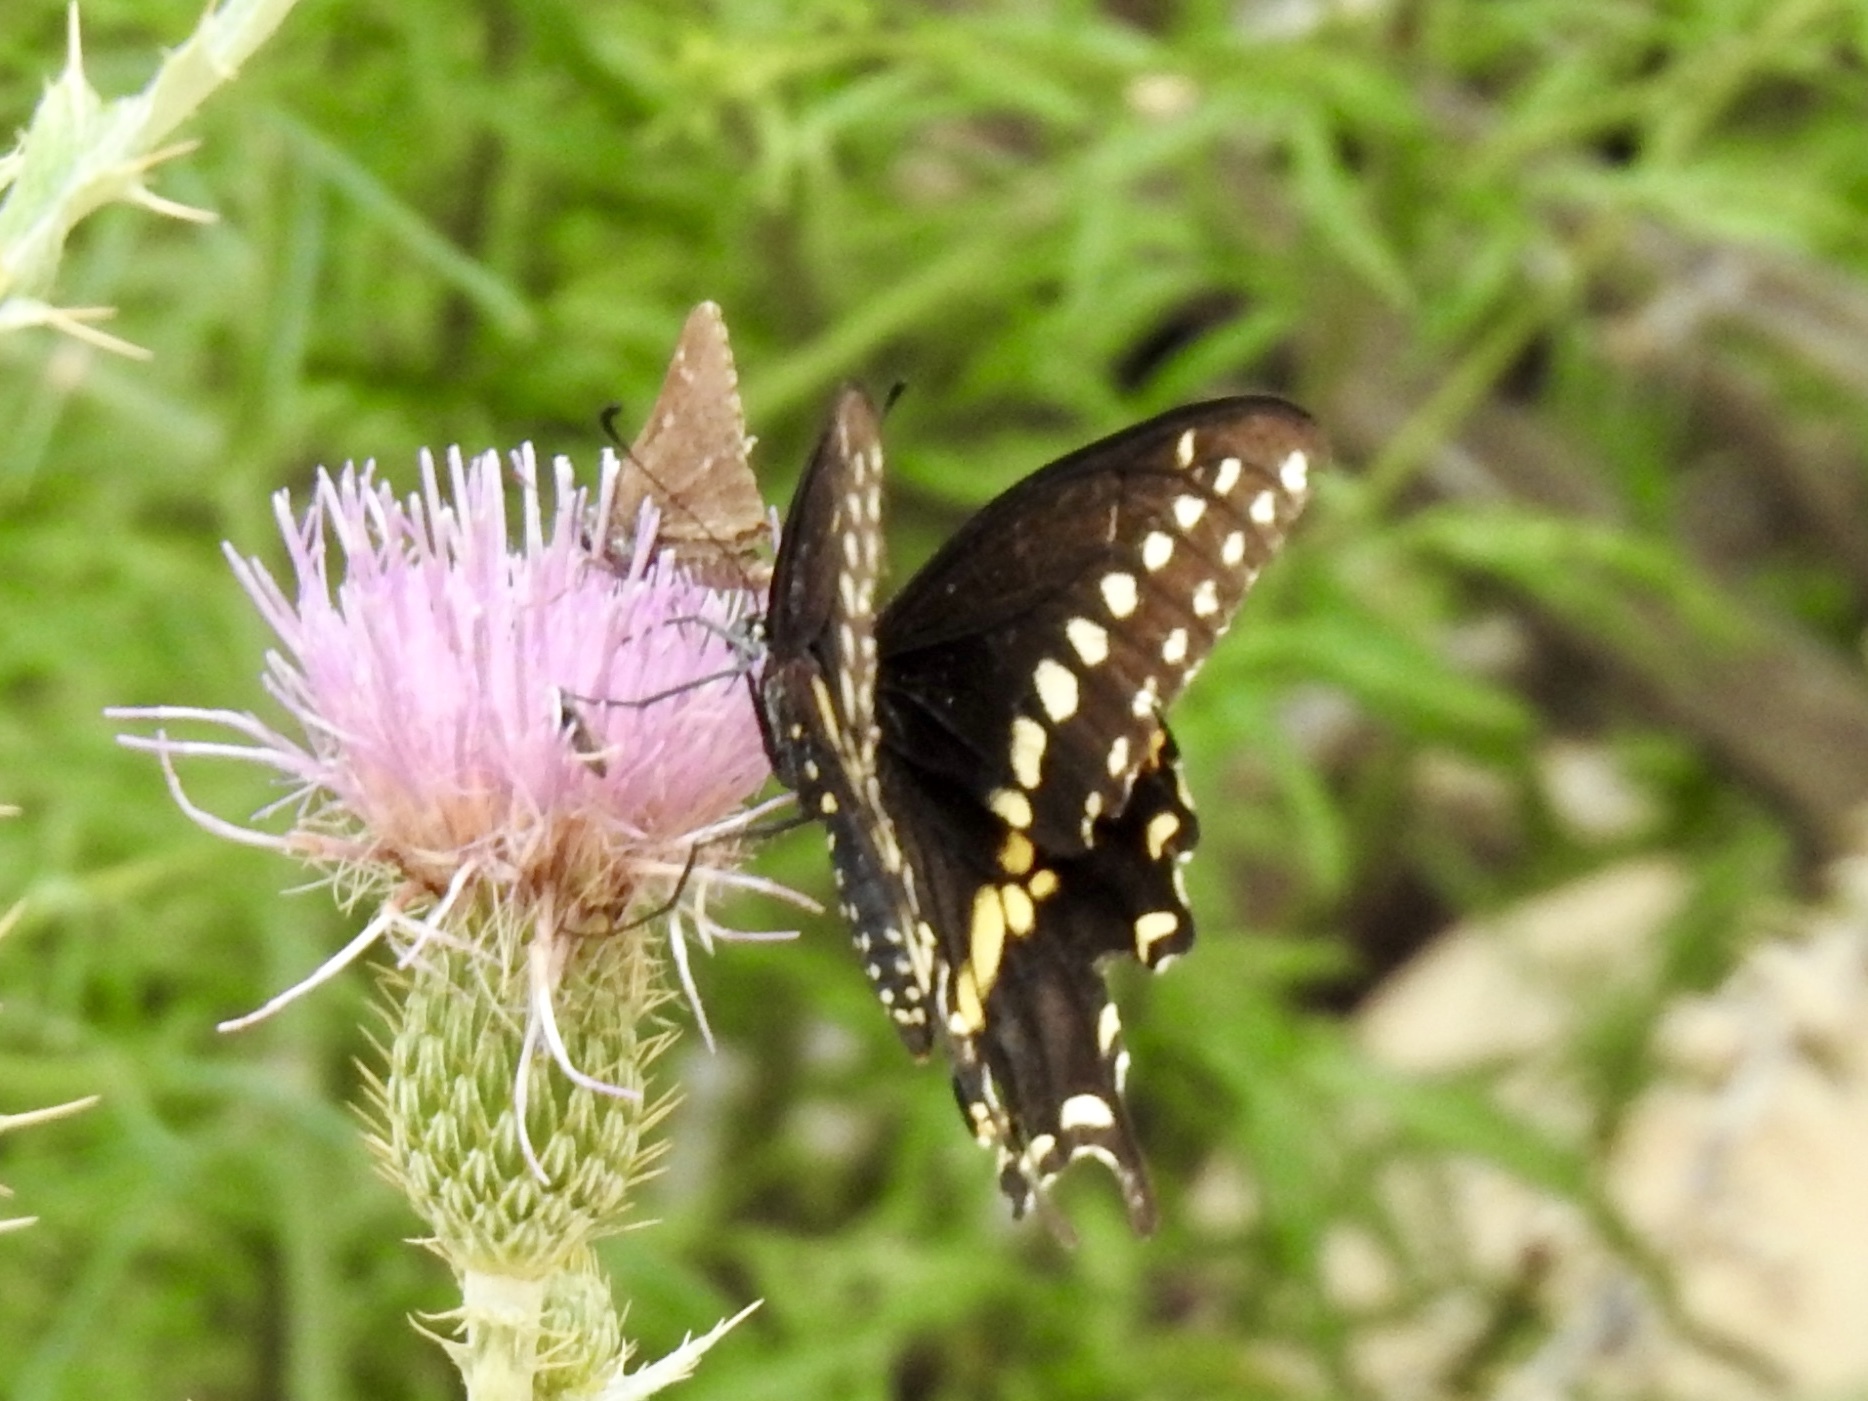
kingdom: Animalia
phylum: Arthropoda
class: Insecta
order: Lepidoptera
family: Papilionidae
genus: Papilio
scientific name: Papilio polyxenes
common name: Black swallowtail
